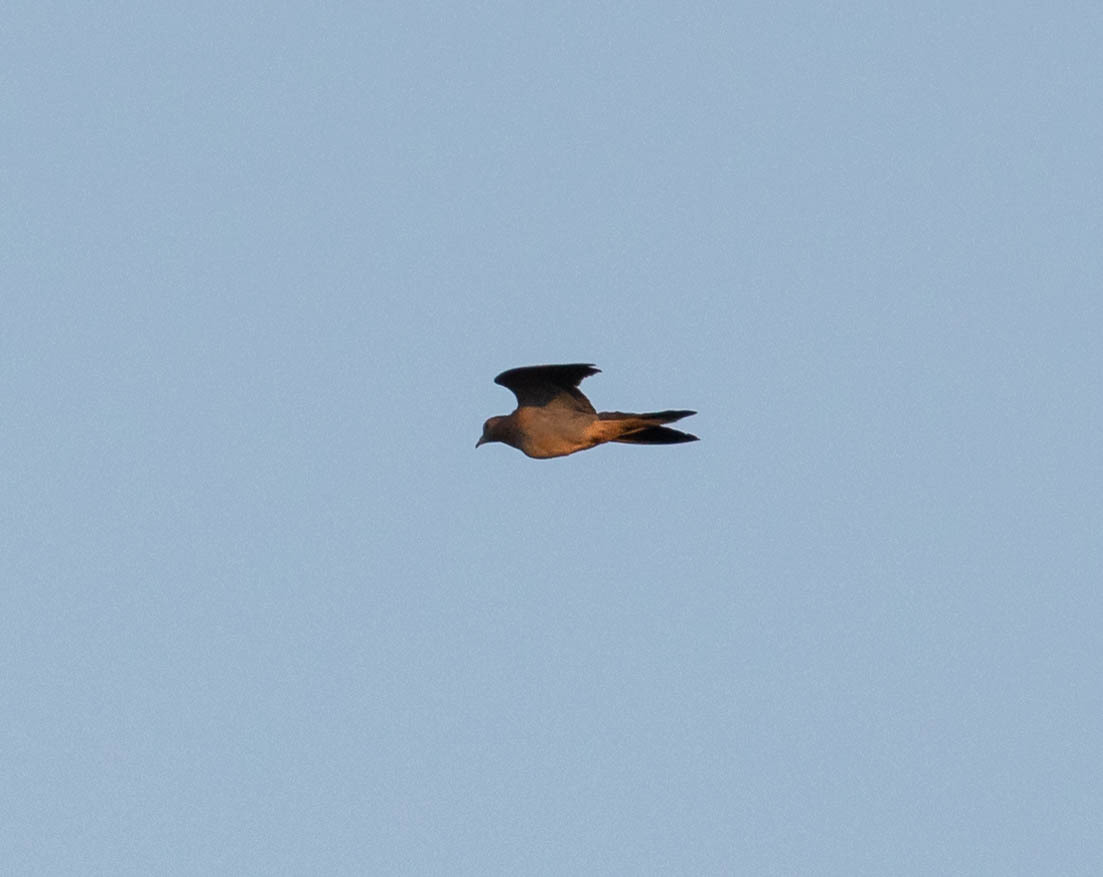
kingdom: Animalia
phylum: Chordata
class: Aves
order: Columbiformes
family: Columbidae
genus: Zenaida
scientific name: Zenaida macroura
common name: Mourning dove
